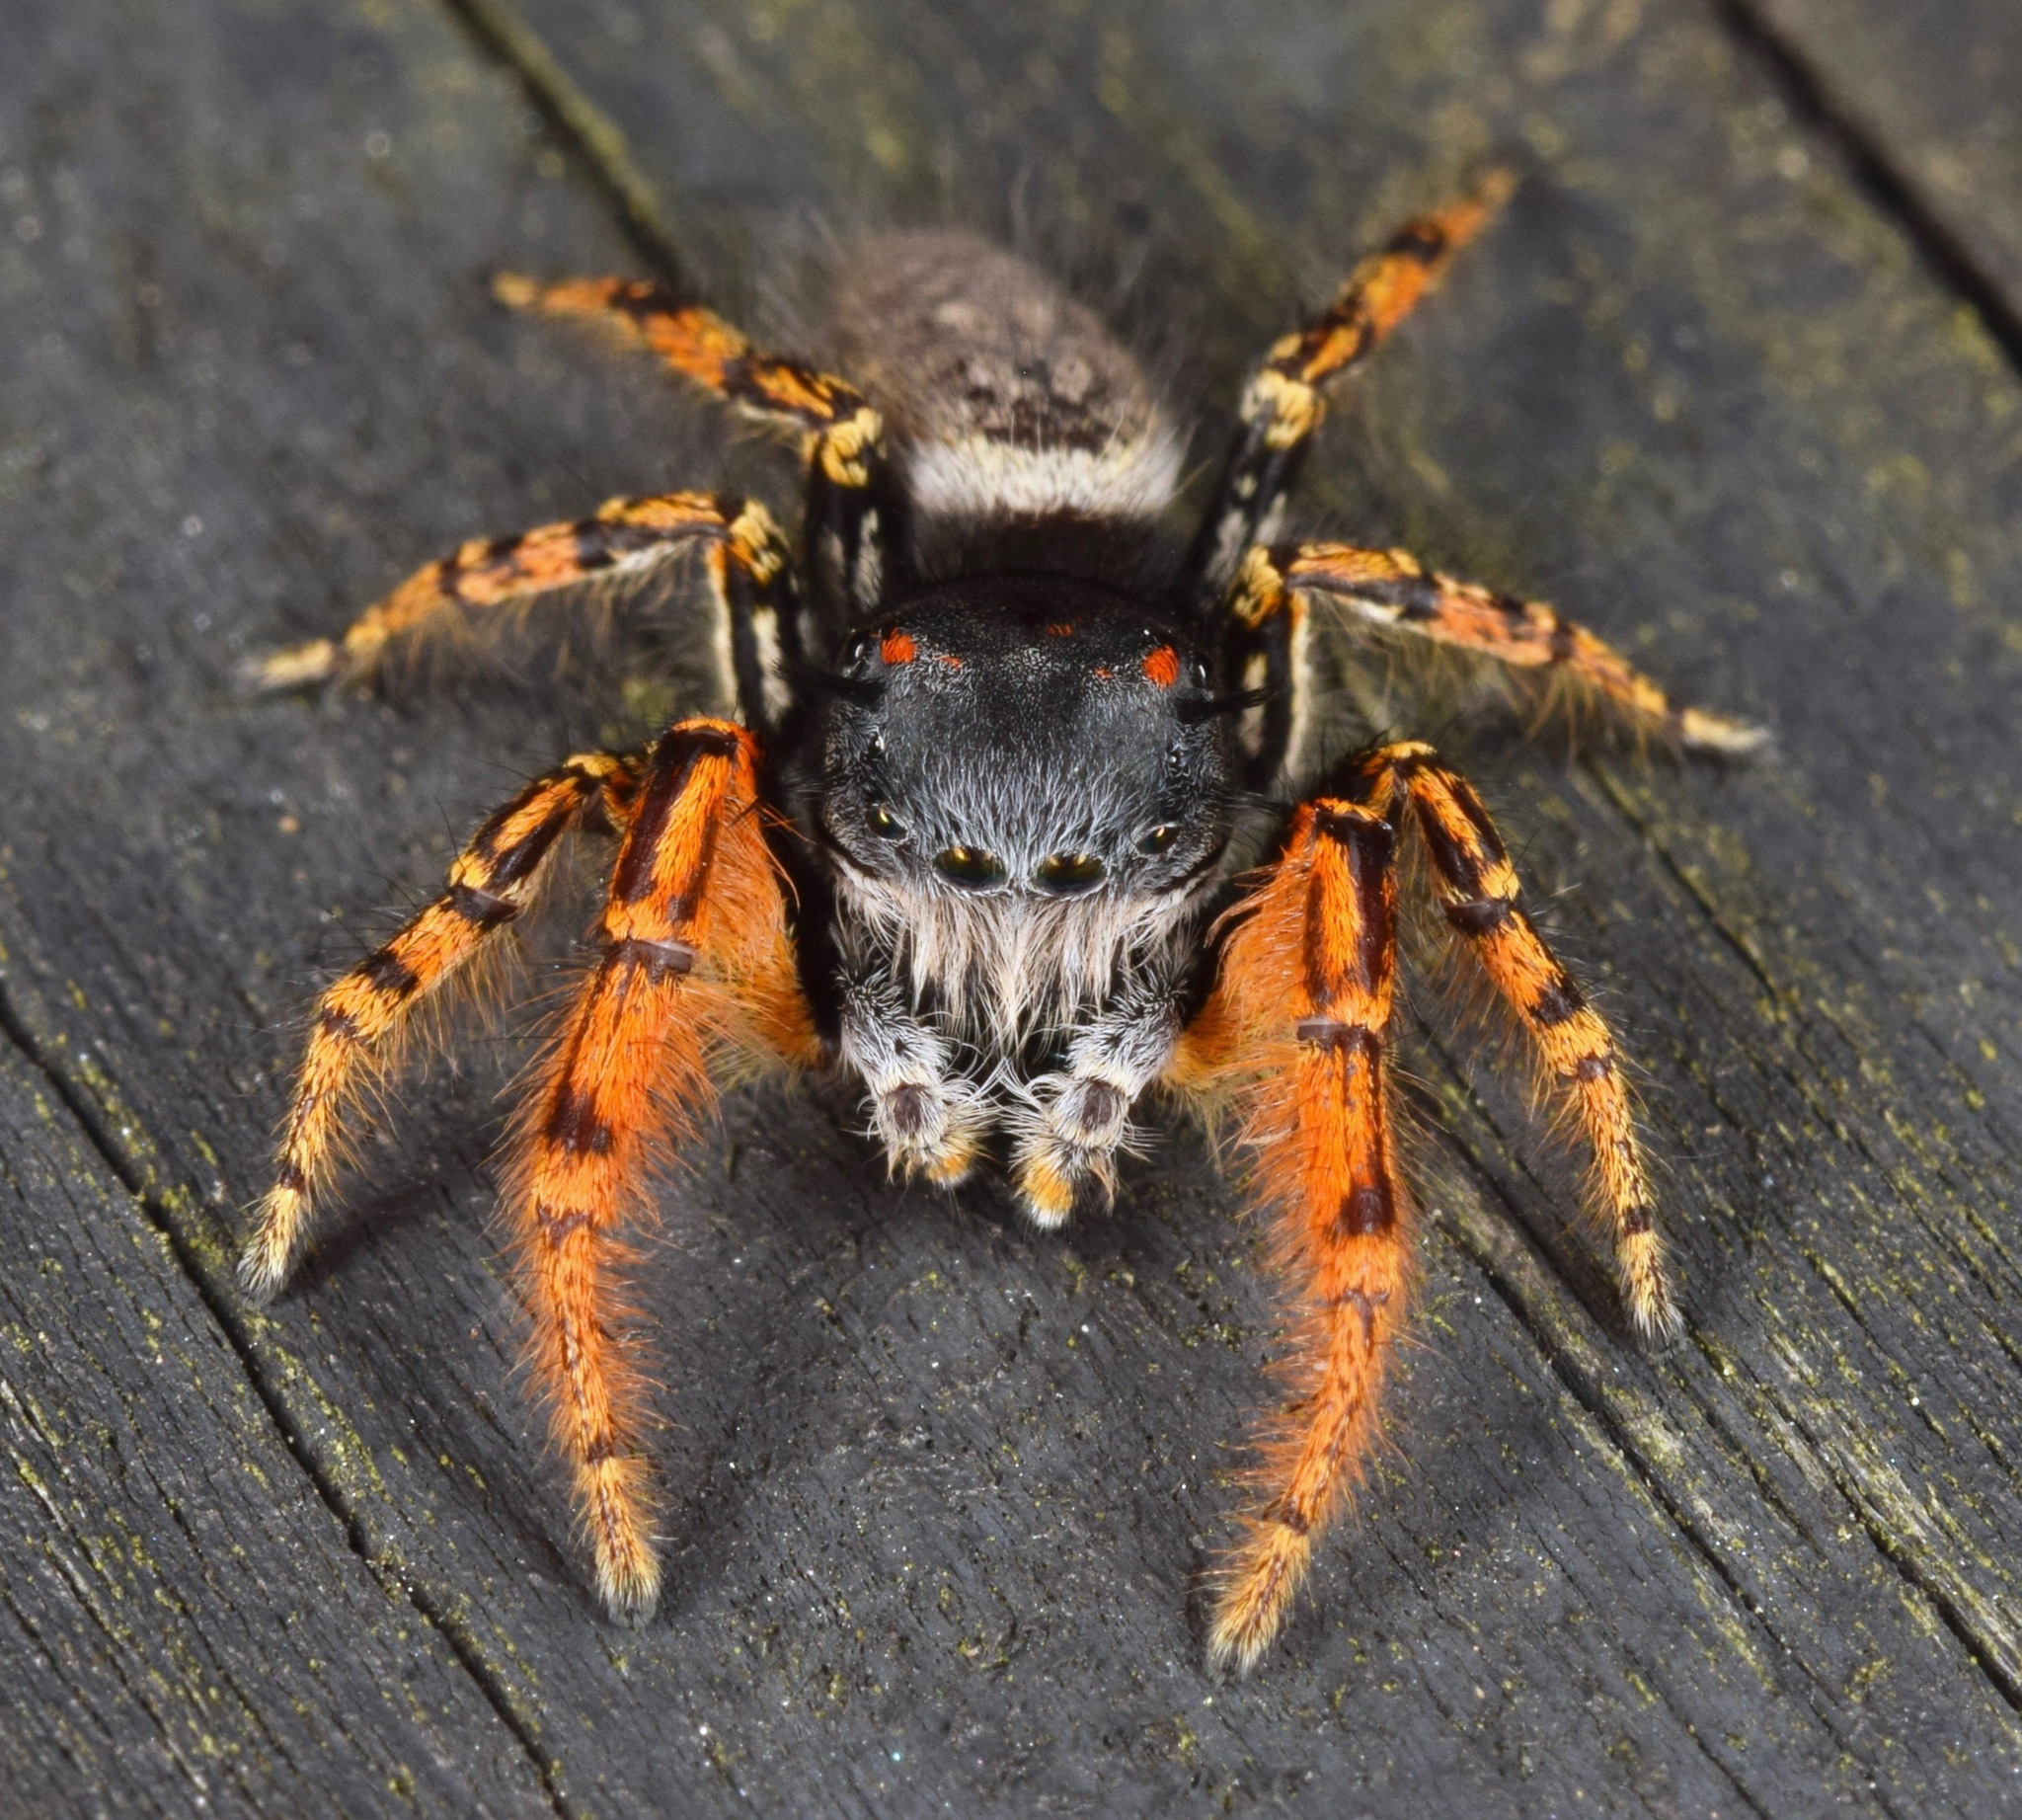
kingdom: Animalia
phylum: Arthropoda
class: Arachnida
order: Araneae
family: Salticidae
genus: Phidippus
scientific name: Phidippus mystaceus
